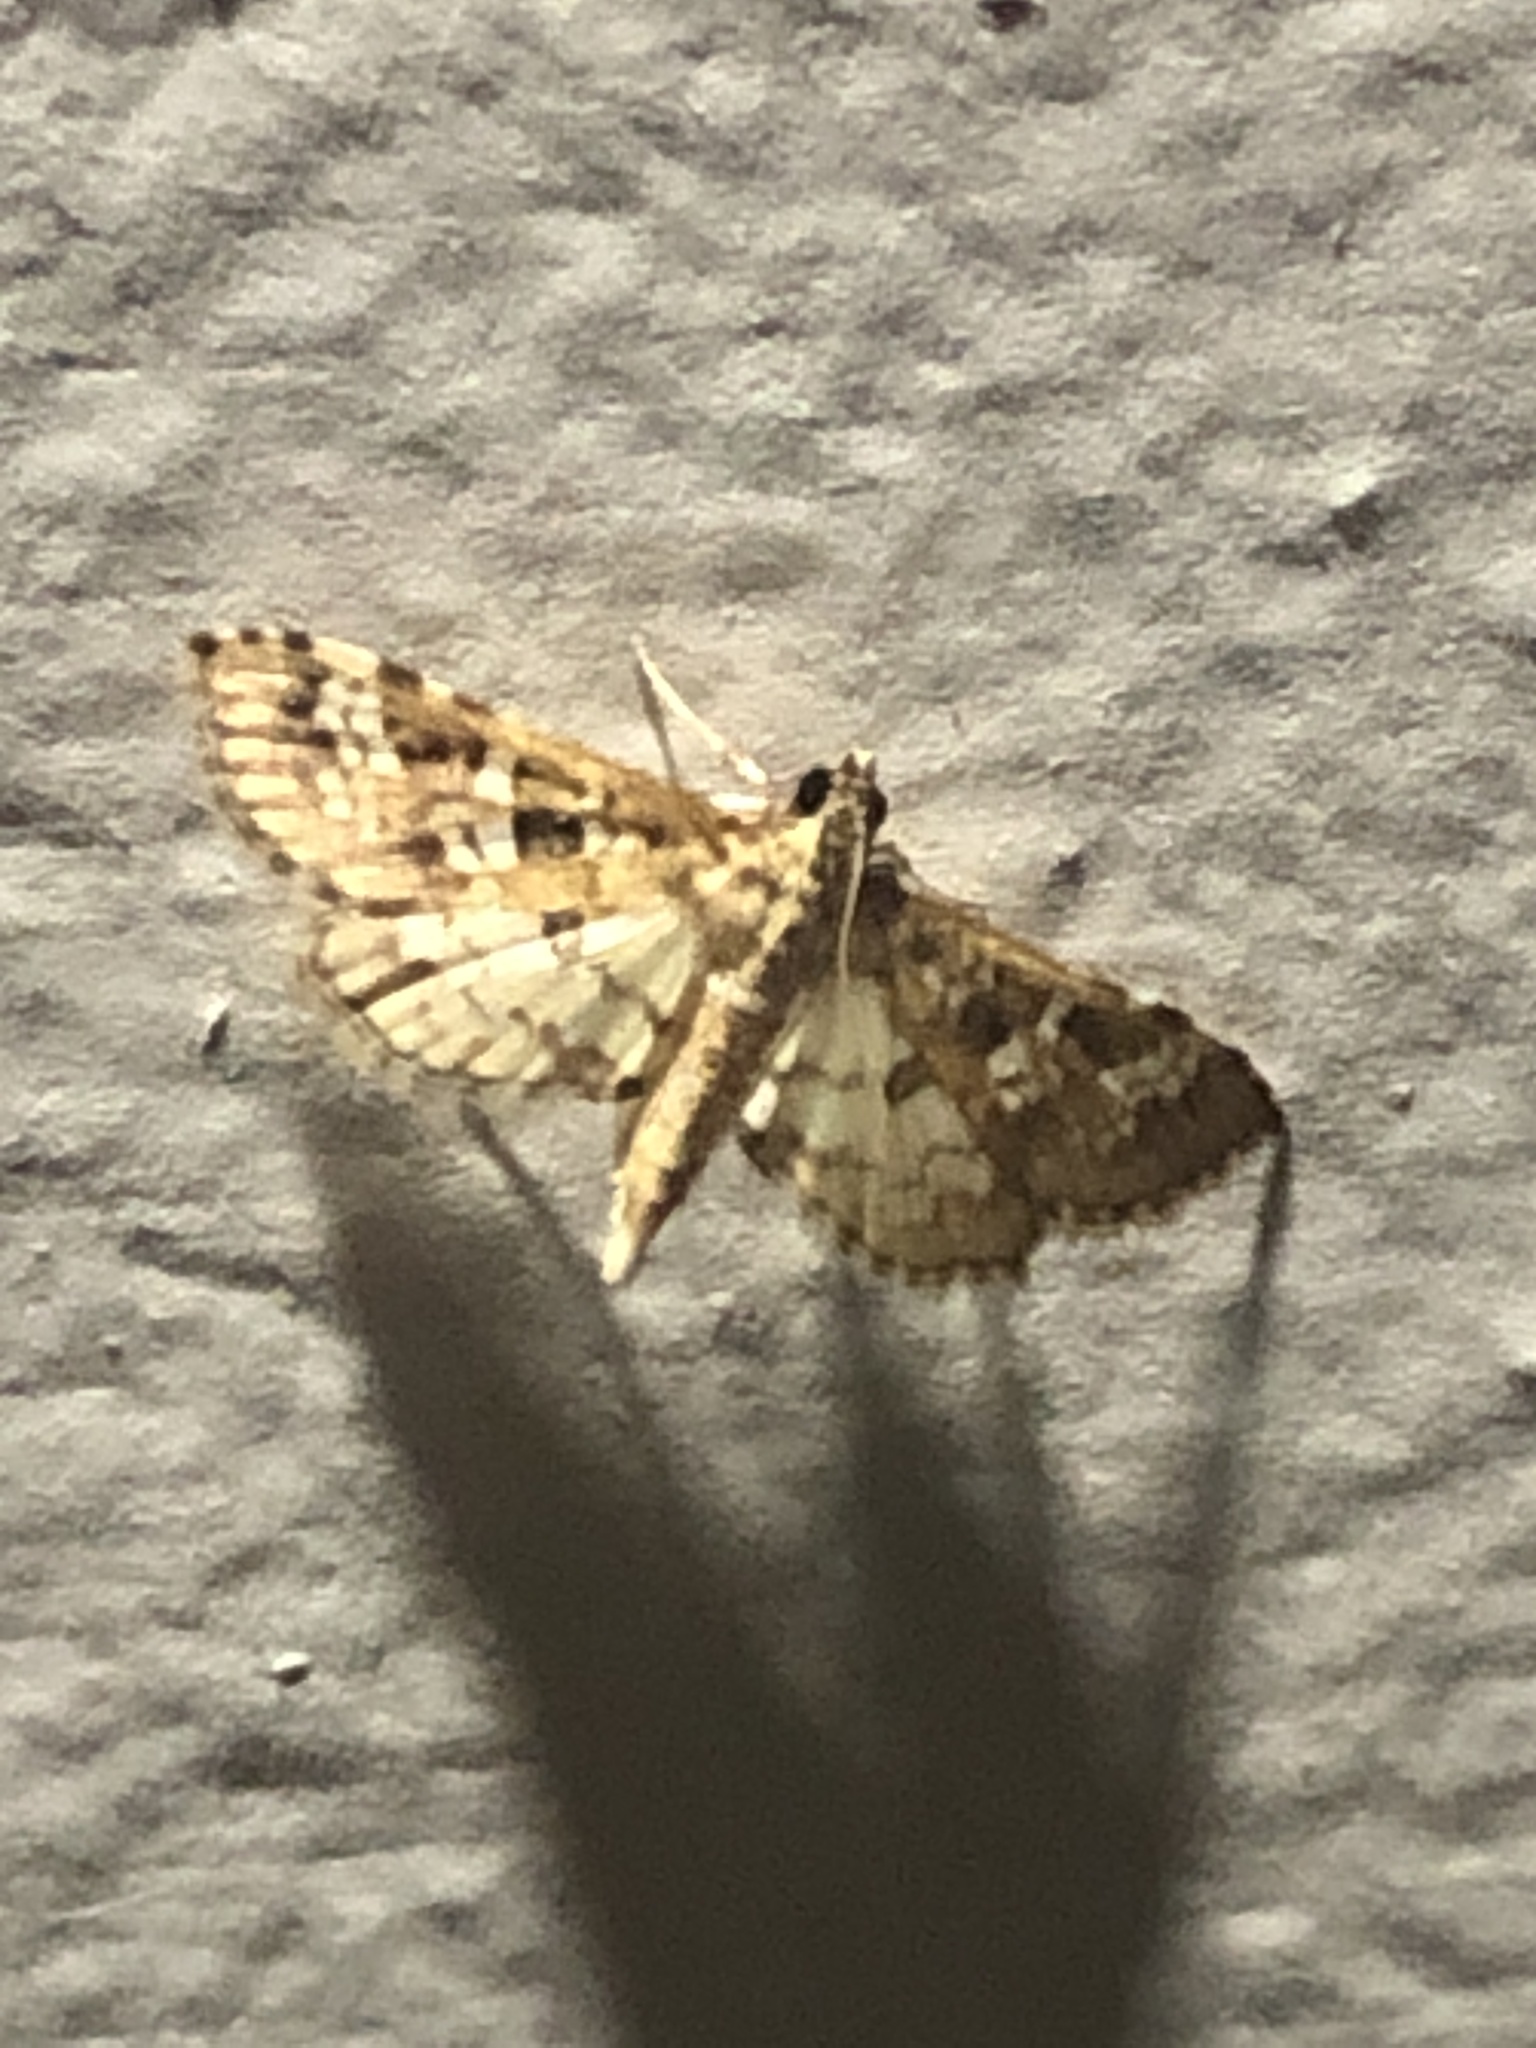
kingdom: Animalia
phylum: Arthropoda
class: Insecta
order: Lepidoptera
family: Crambidae
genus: Samea
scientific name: Samea multiplicalis
